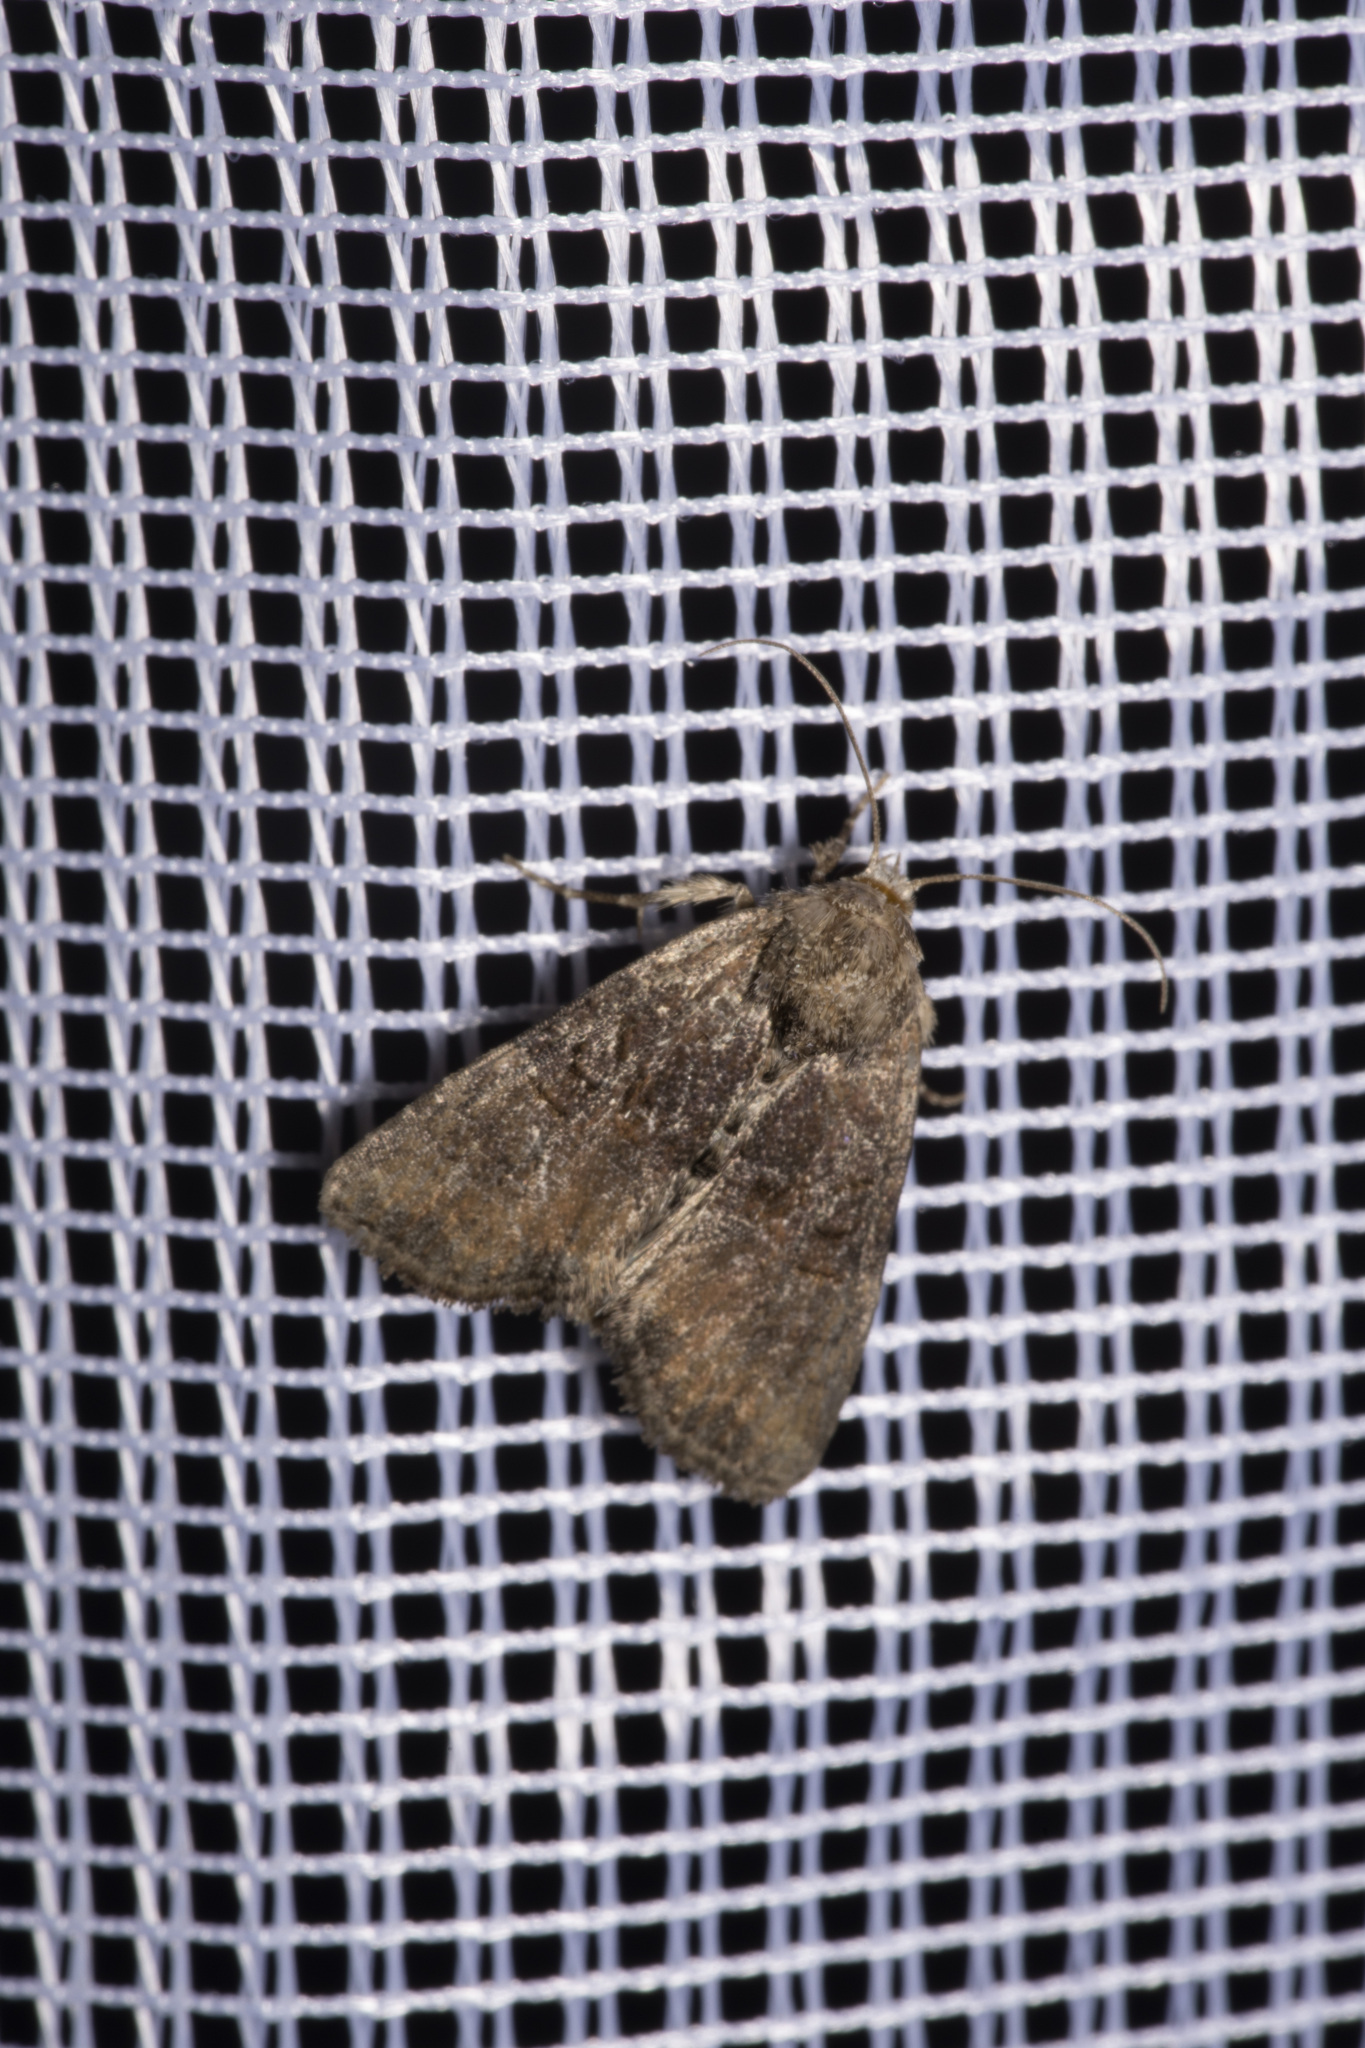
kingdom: Animalia
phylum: Arthropoda
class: Insecta
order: Lepidoptera
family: Noctuidae
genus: Mesoligia
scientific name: Mesoligia furuncula
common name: Cloaked minor
